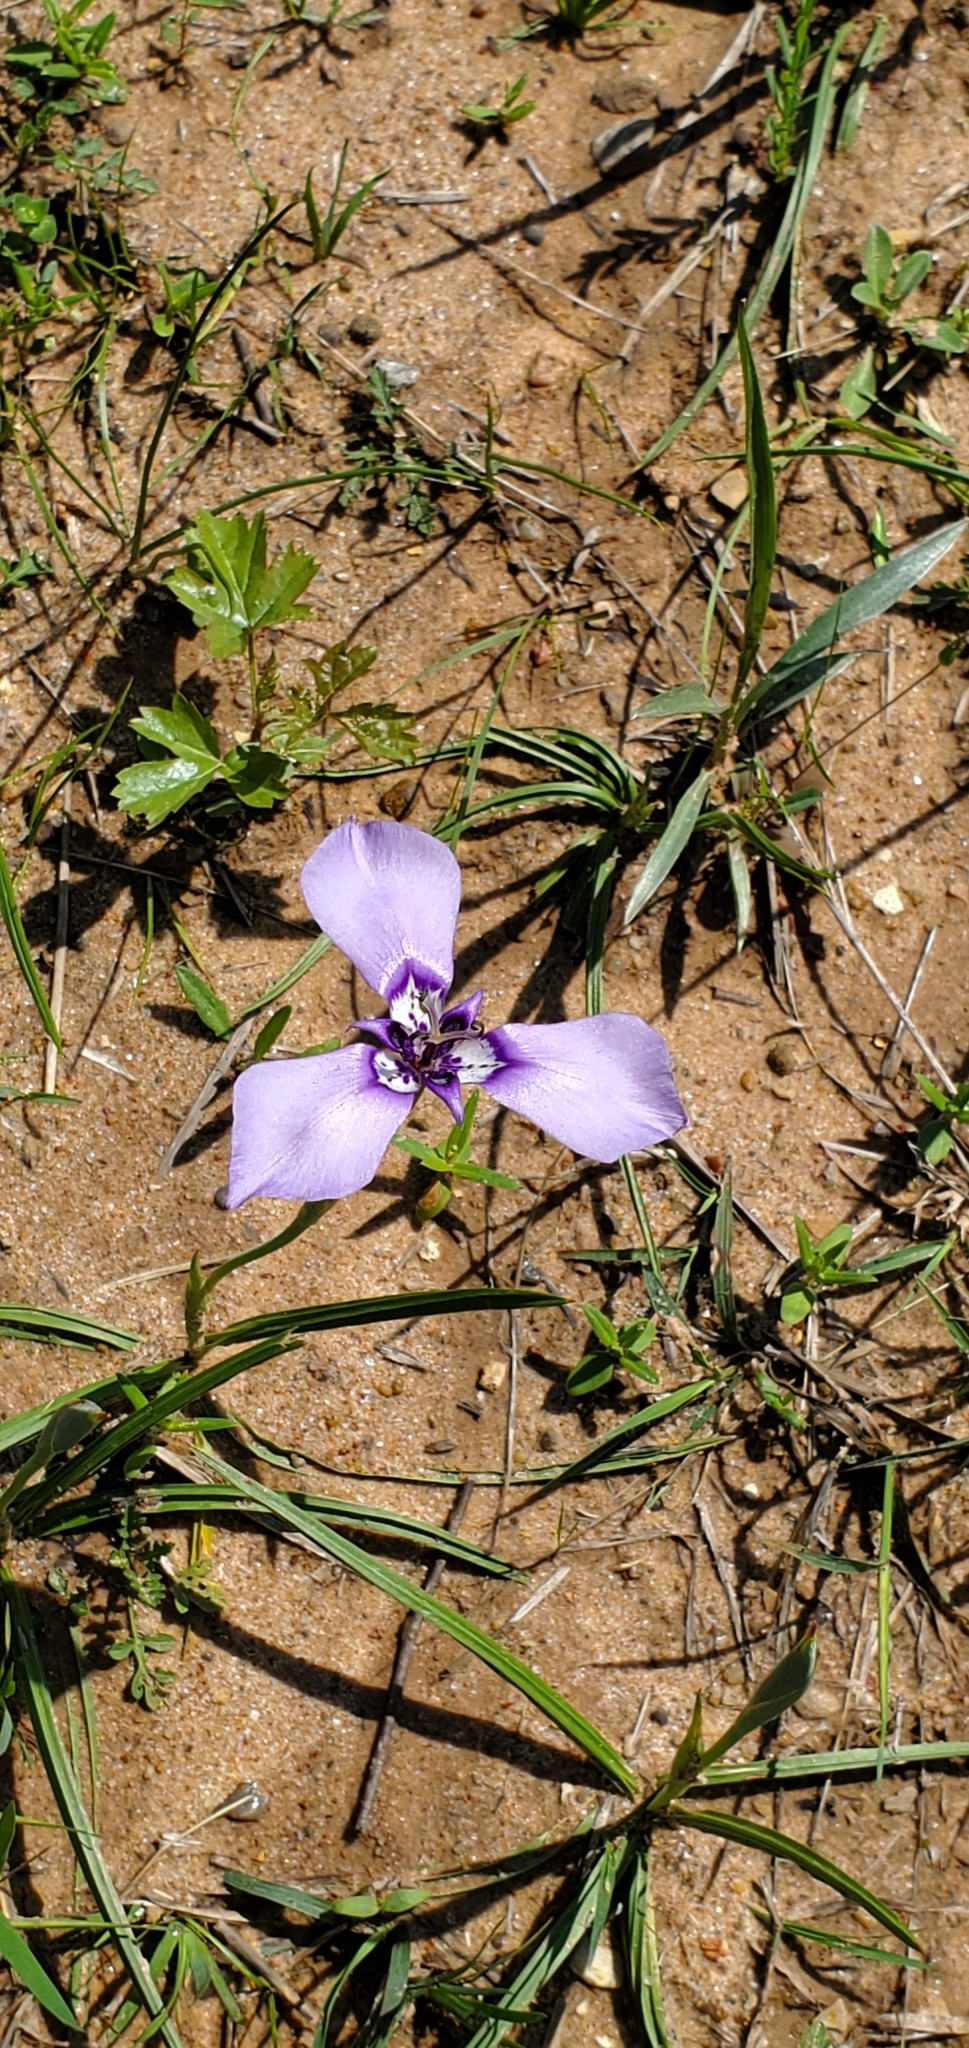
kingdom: Plantae
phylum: Tracheophyta
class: Liliopsida
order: Asparagales
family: Iridaceae
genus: Herbertia
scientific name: Herbertia lahue
